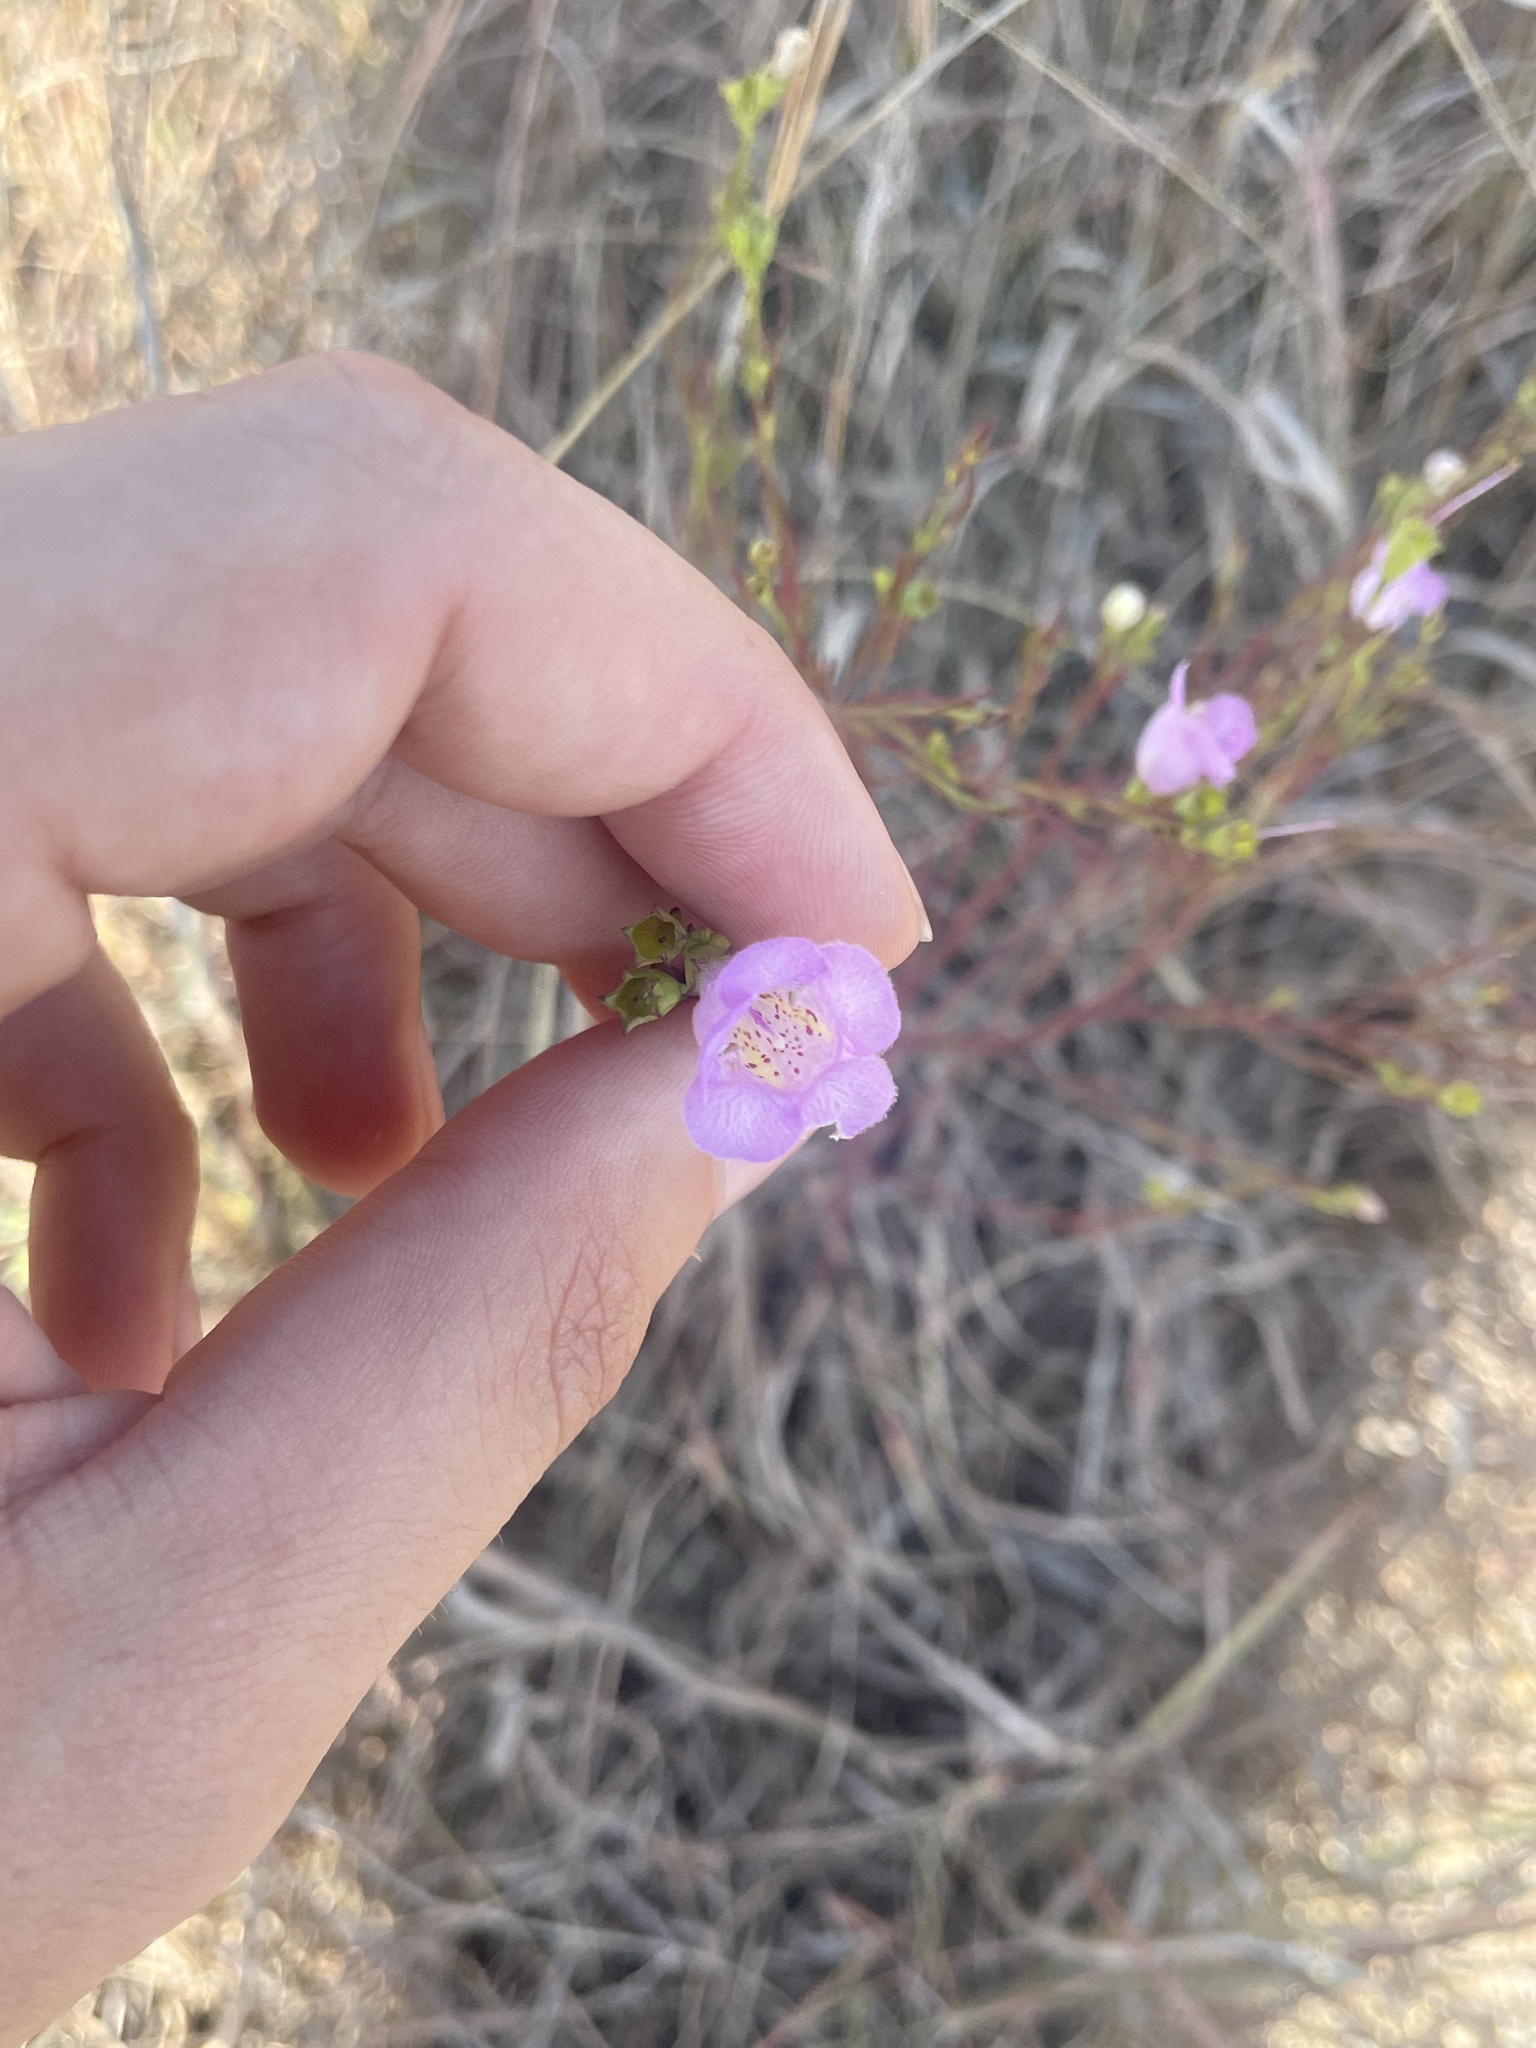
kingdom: Plantae
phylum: Tracheophyta
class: Magnoliopsida
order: Lamiales
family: Orobanchaceae
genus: Agalinis
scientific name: Agalinis aspera
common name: Rough agalinis
